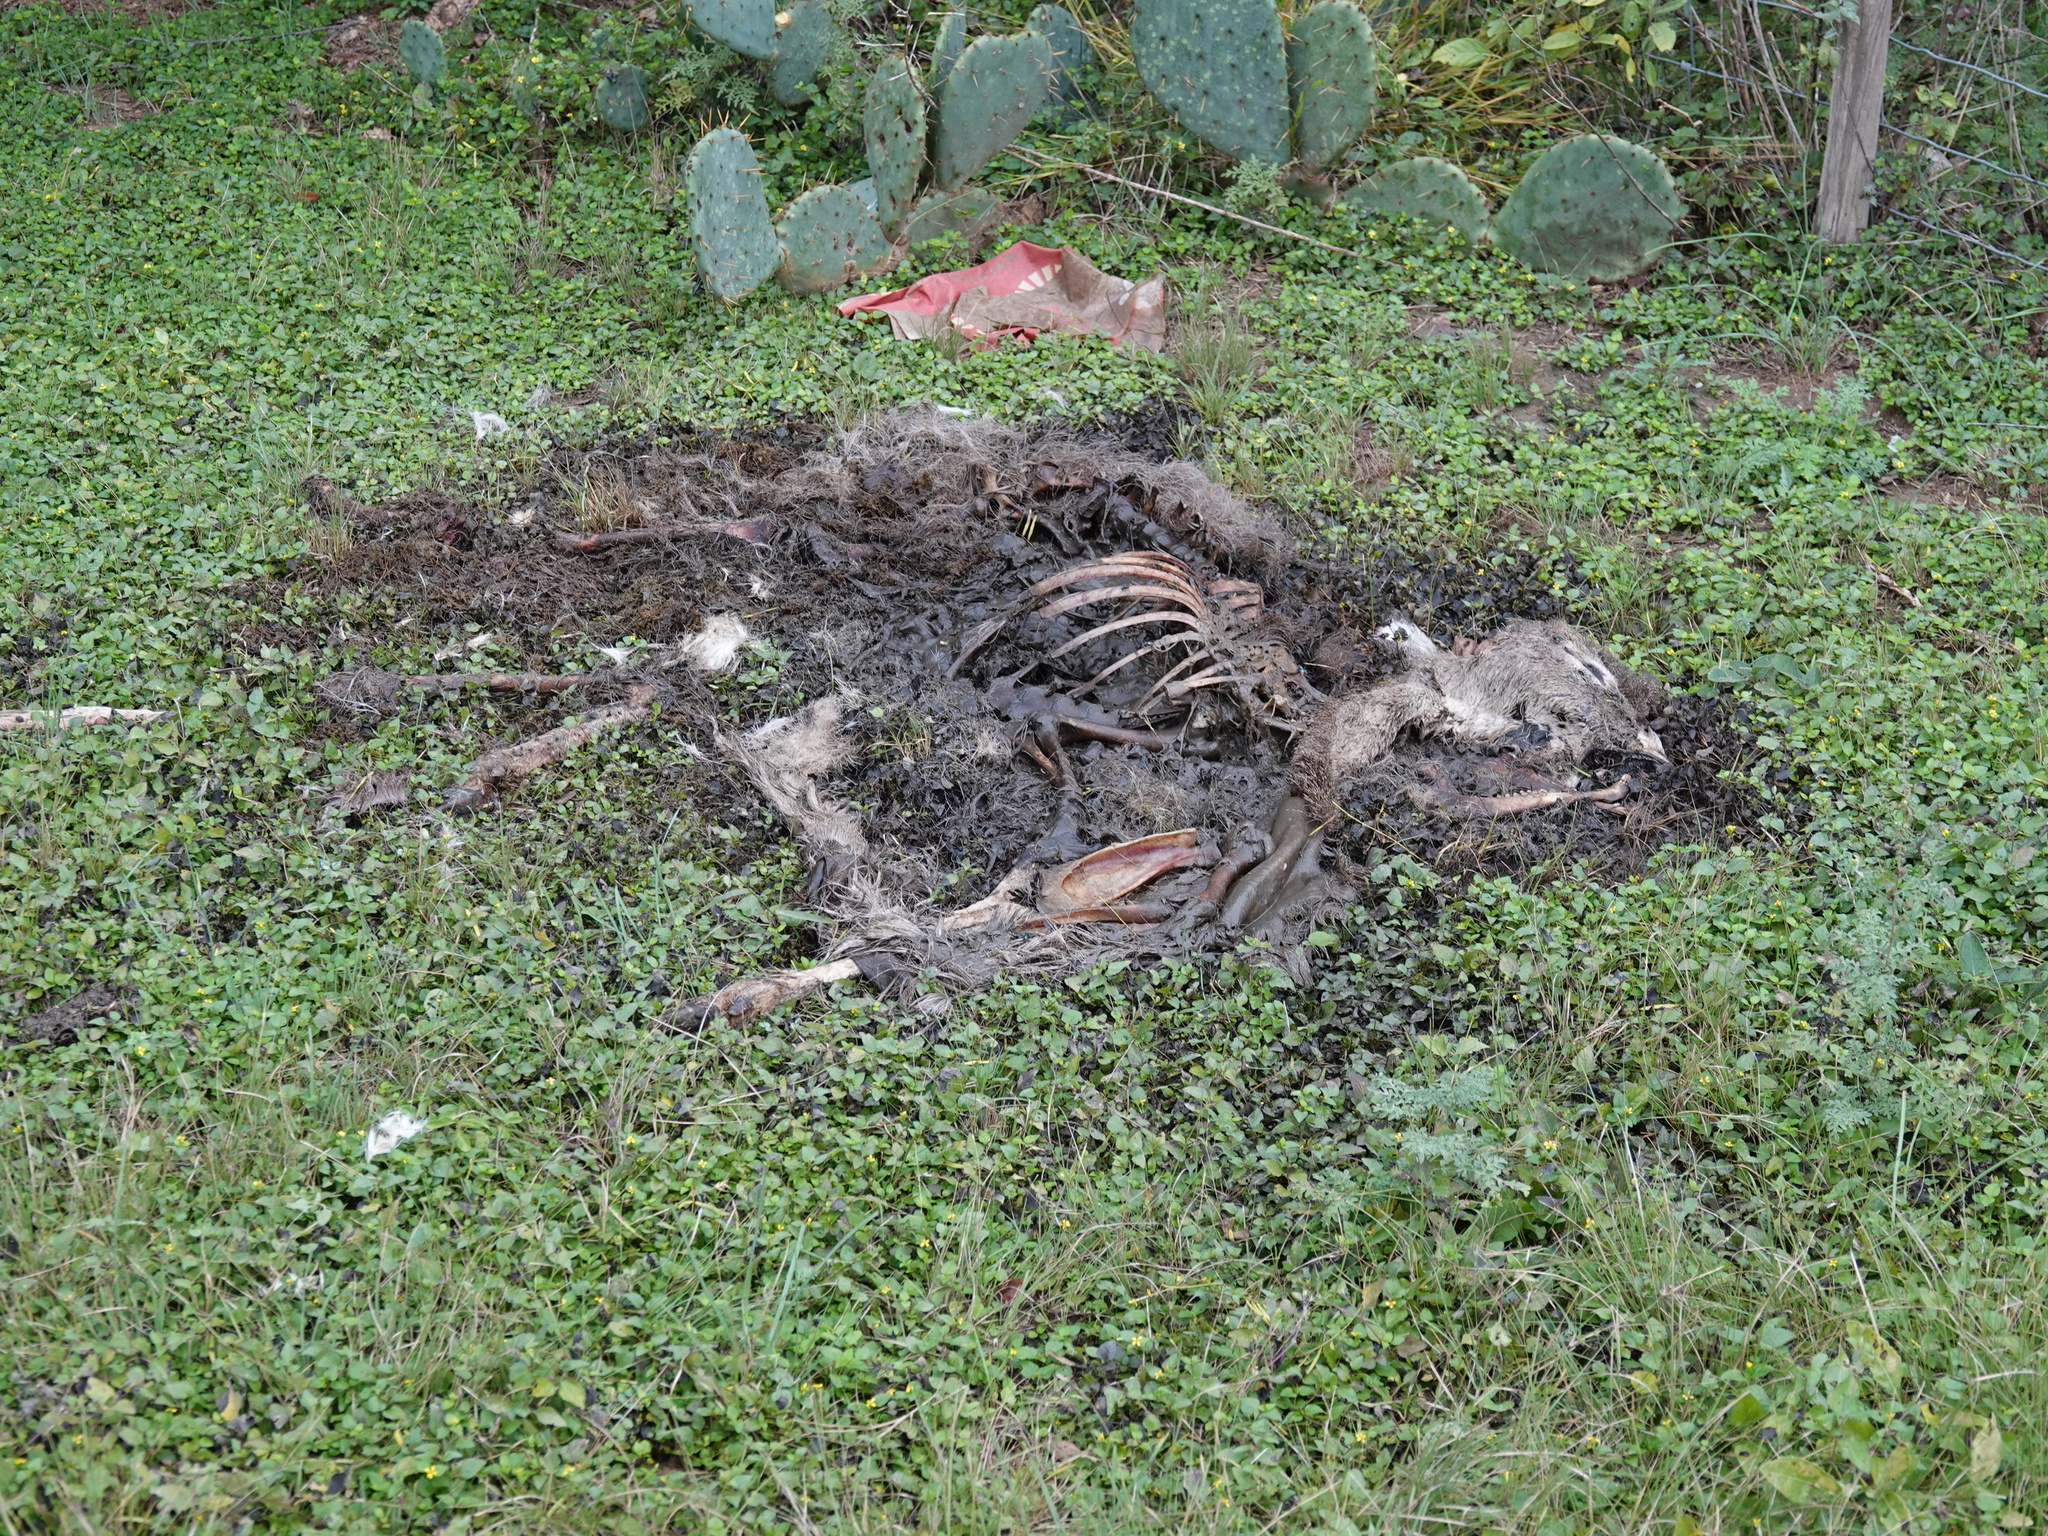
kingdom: Animalia
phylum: Chordata
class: Mammalia
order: Artiodactyla
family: Cervidae
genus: Odocoileus
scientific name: Odocoileus virginianus
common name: White-tailed deer
